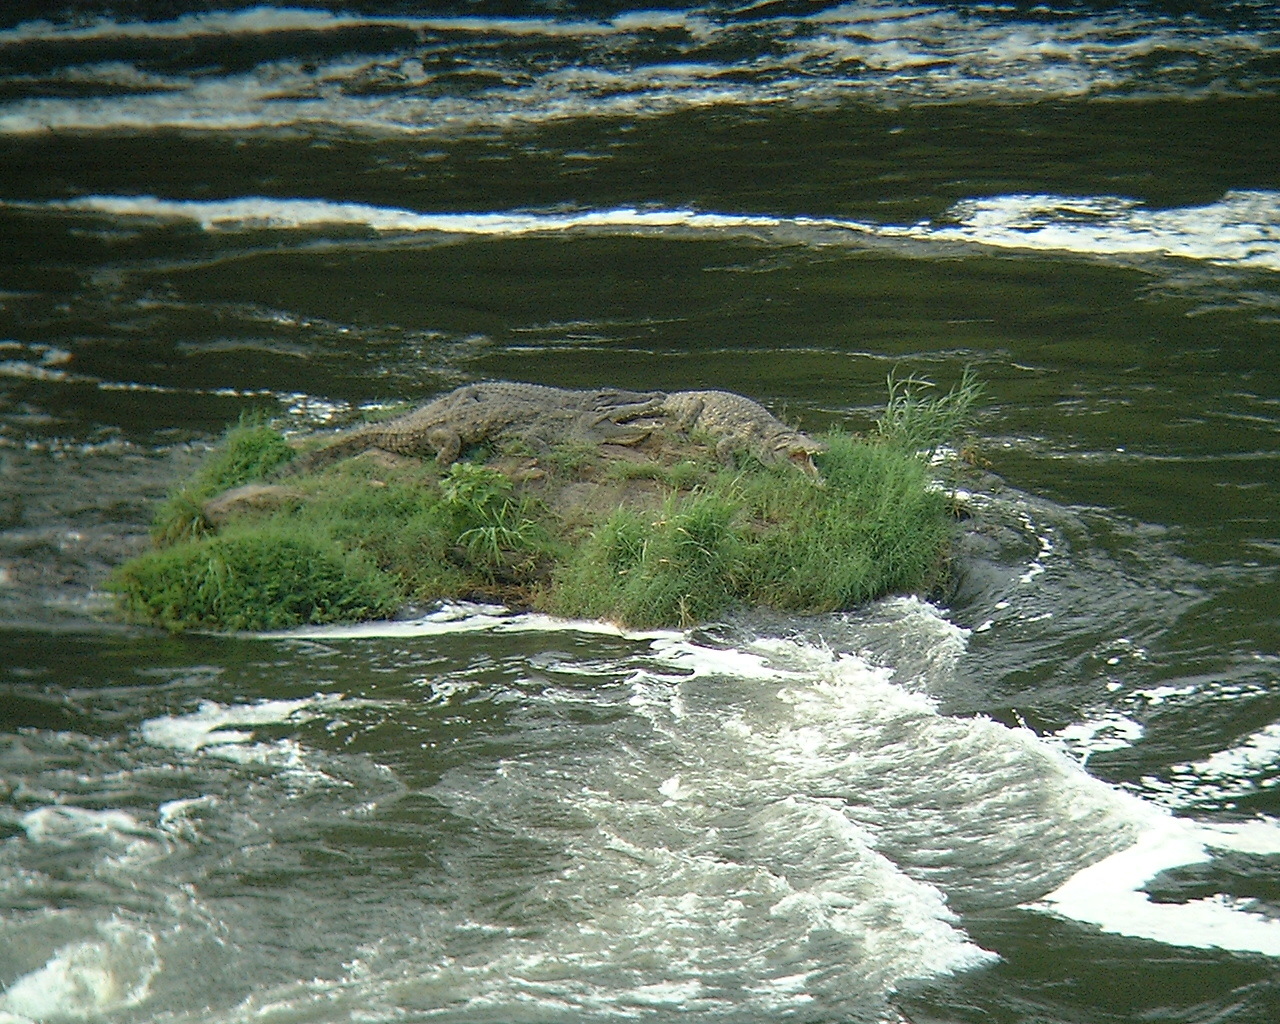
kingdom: Animalia
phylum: Chordata
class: Crocodylia
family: Crocodylidae
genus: Crocodylus
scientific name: Crocodylus niloticus
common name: Nile crocodile
